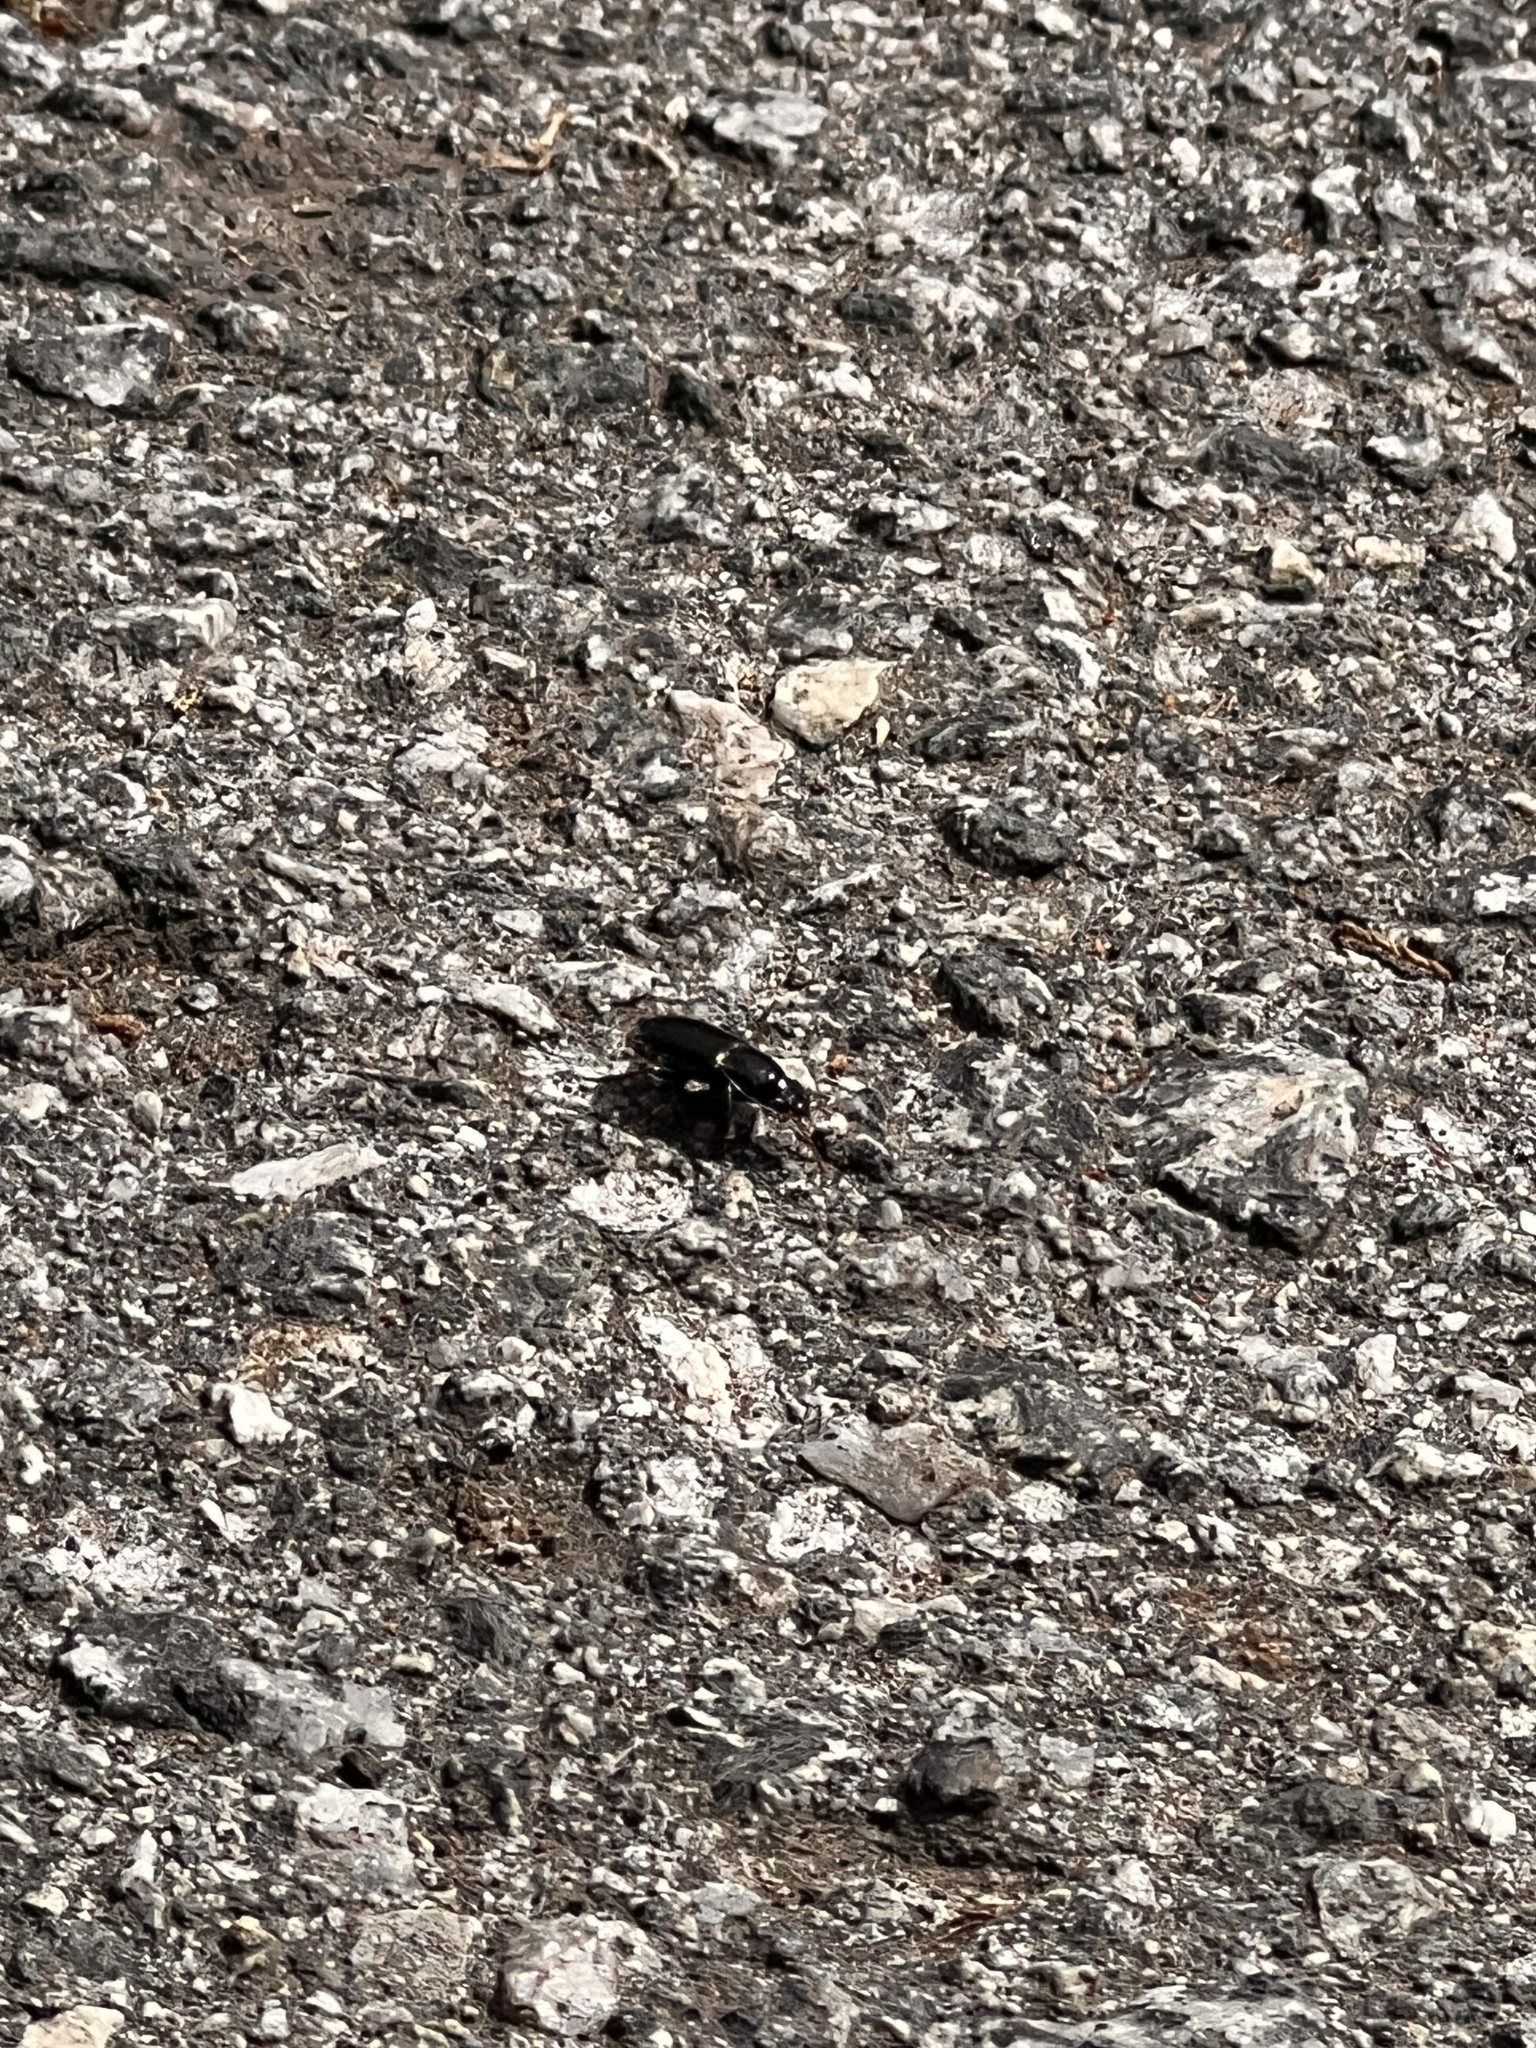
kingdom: Animalia
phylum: Arthropoda
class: Insecta
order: Coleoptera
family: Carabidae
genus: Harpalus
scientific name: Harpalus affinis
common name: Polychrome harp ground beetle
